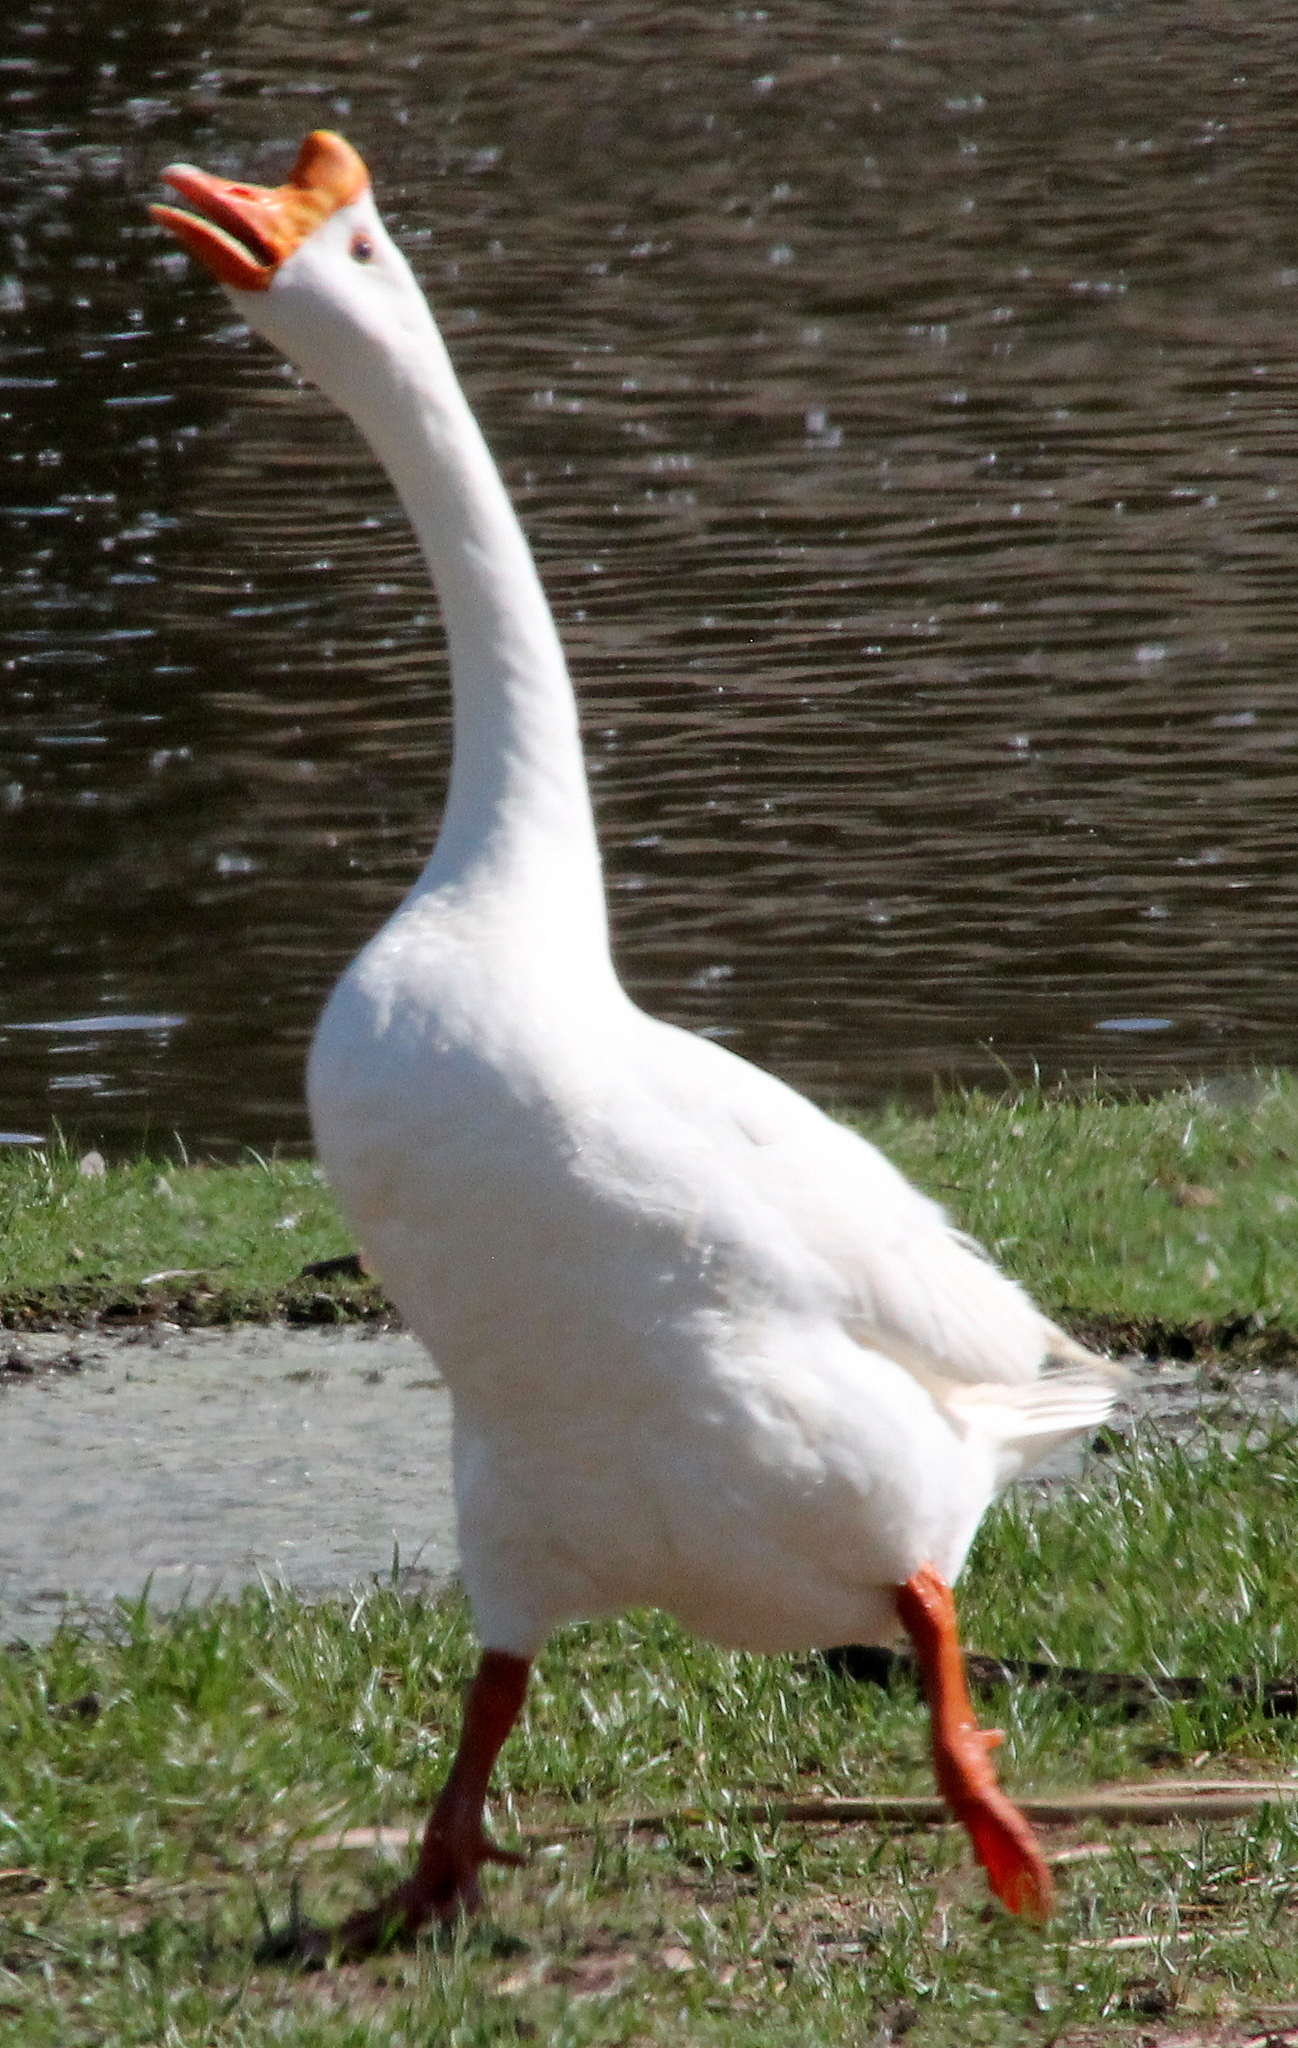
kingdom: Animalia
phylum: Chordata
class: Aves
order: Anseriformes
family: Anatidae
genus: Anser
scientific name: Anser cygnoides
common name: Swan goose
